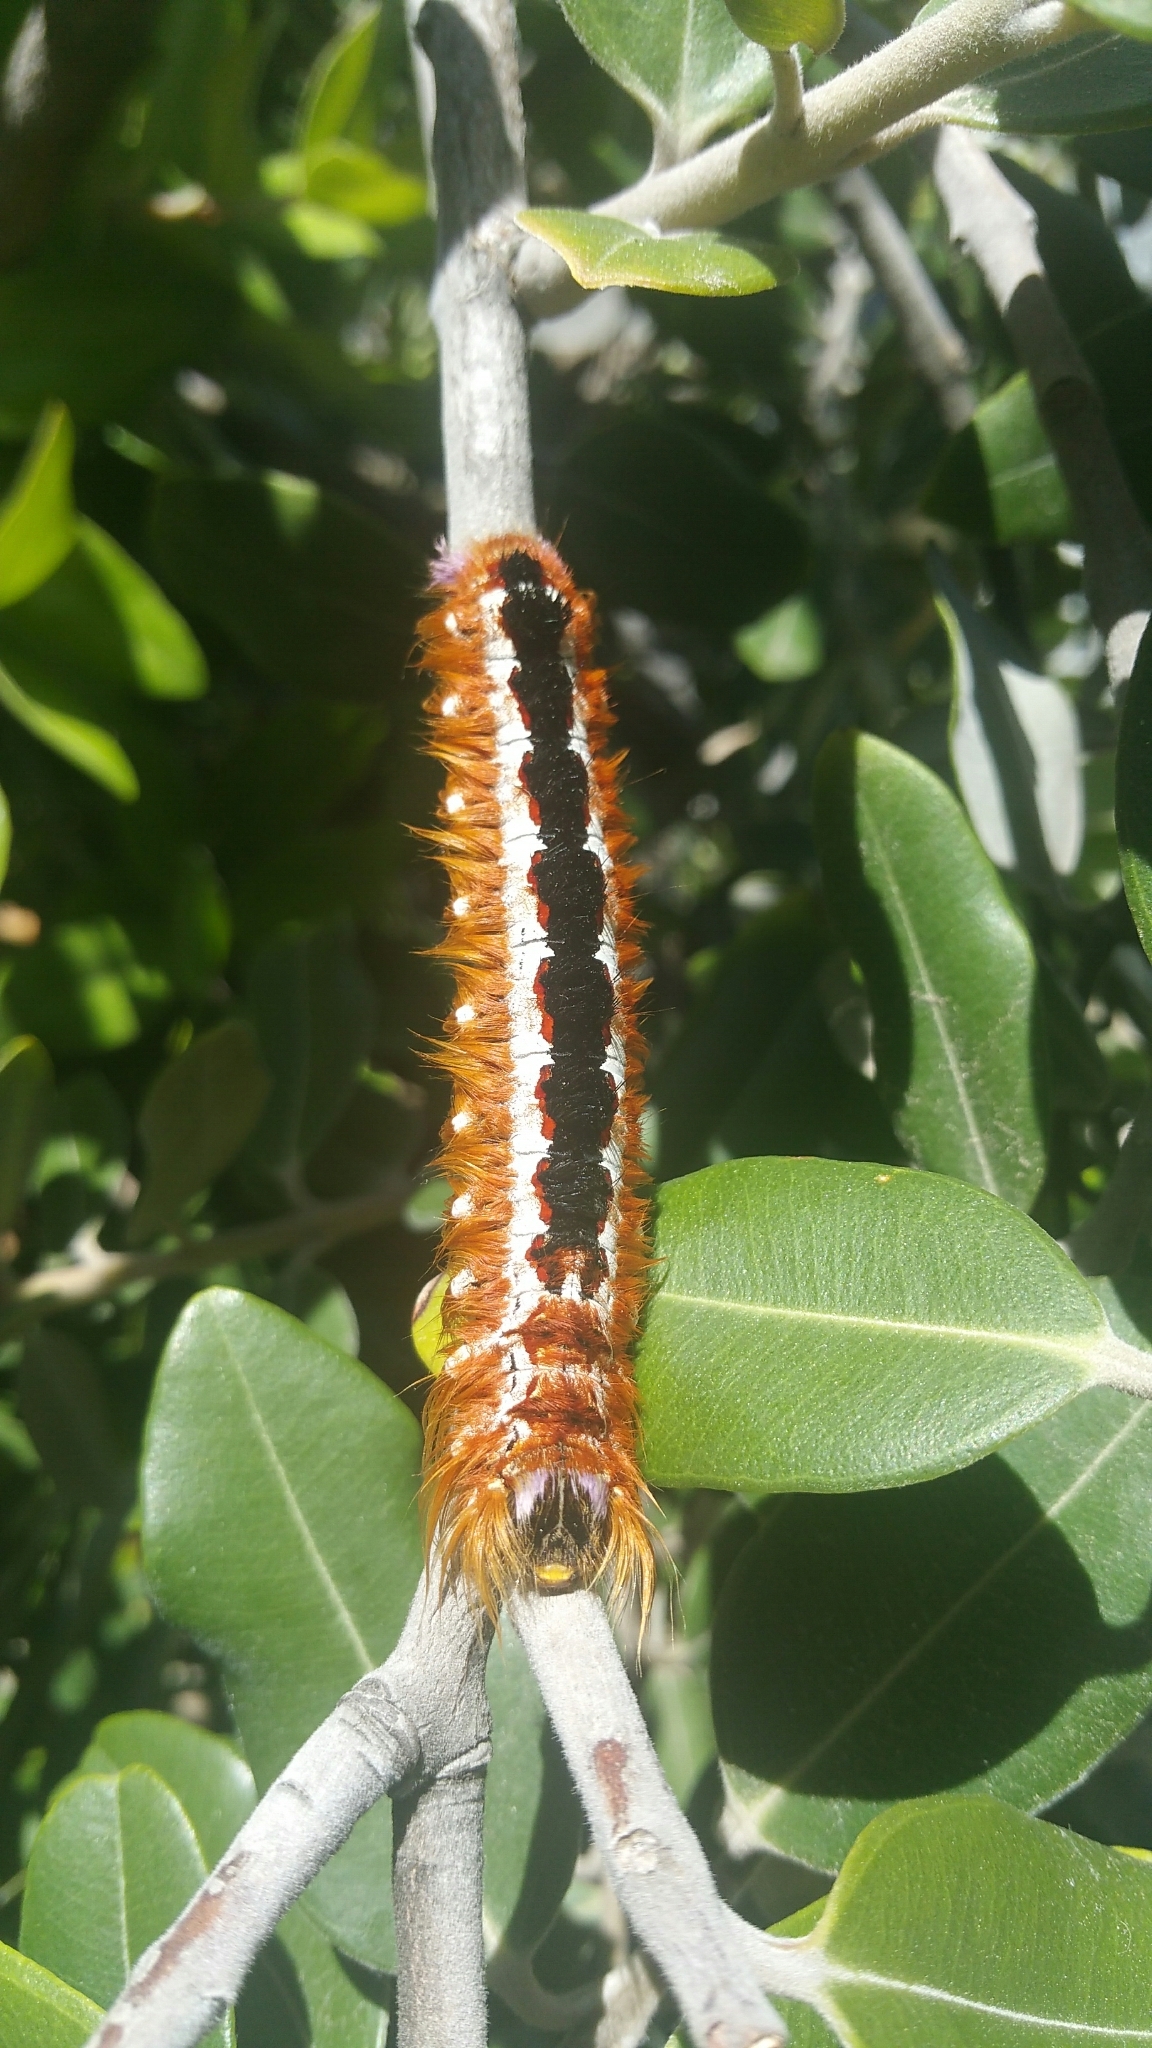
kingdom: Animalia
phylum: Arthropoda
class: Insecta
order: Lepidoptera
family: Lasiocampidae
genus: Eutricha
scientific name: Eutricha capensis
